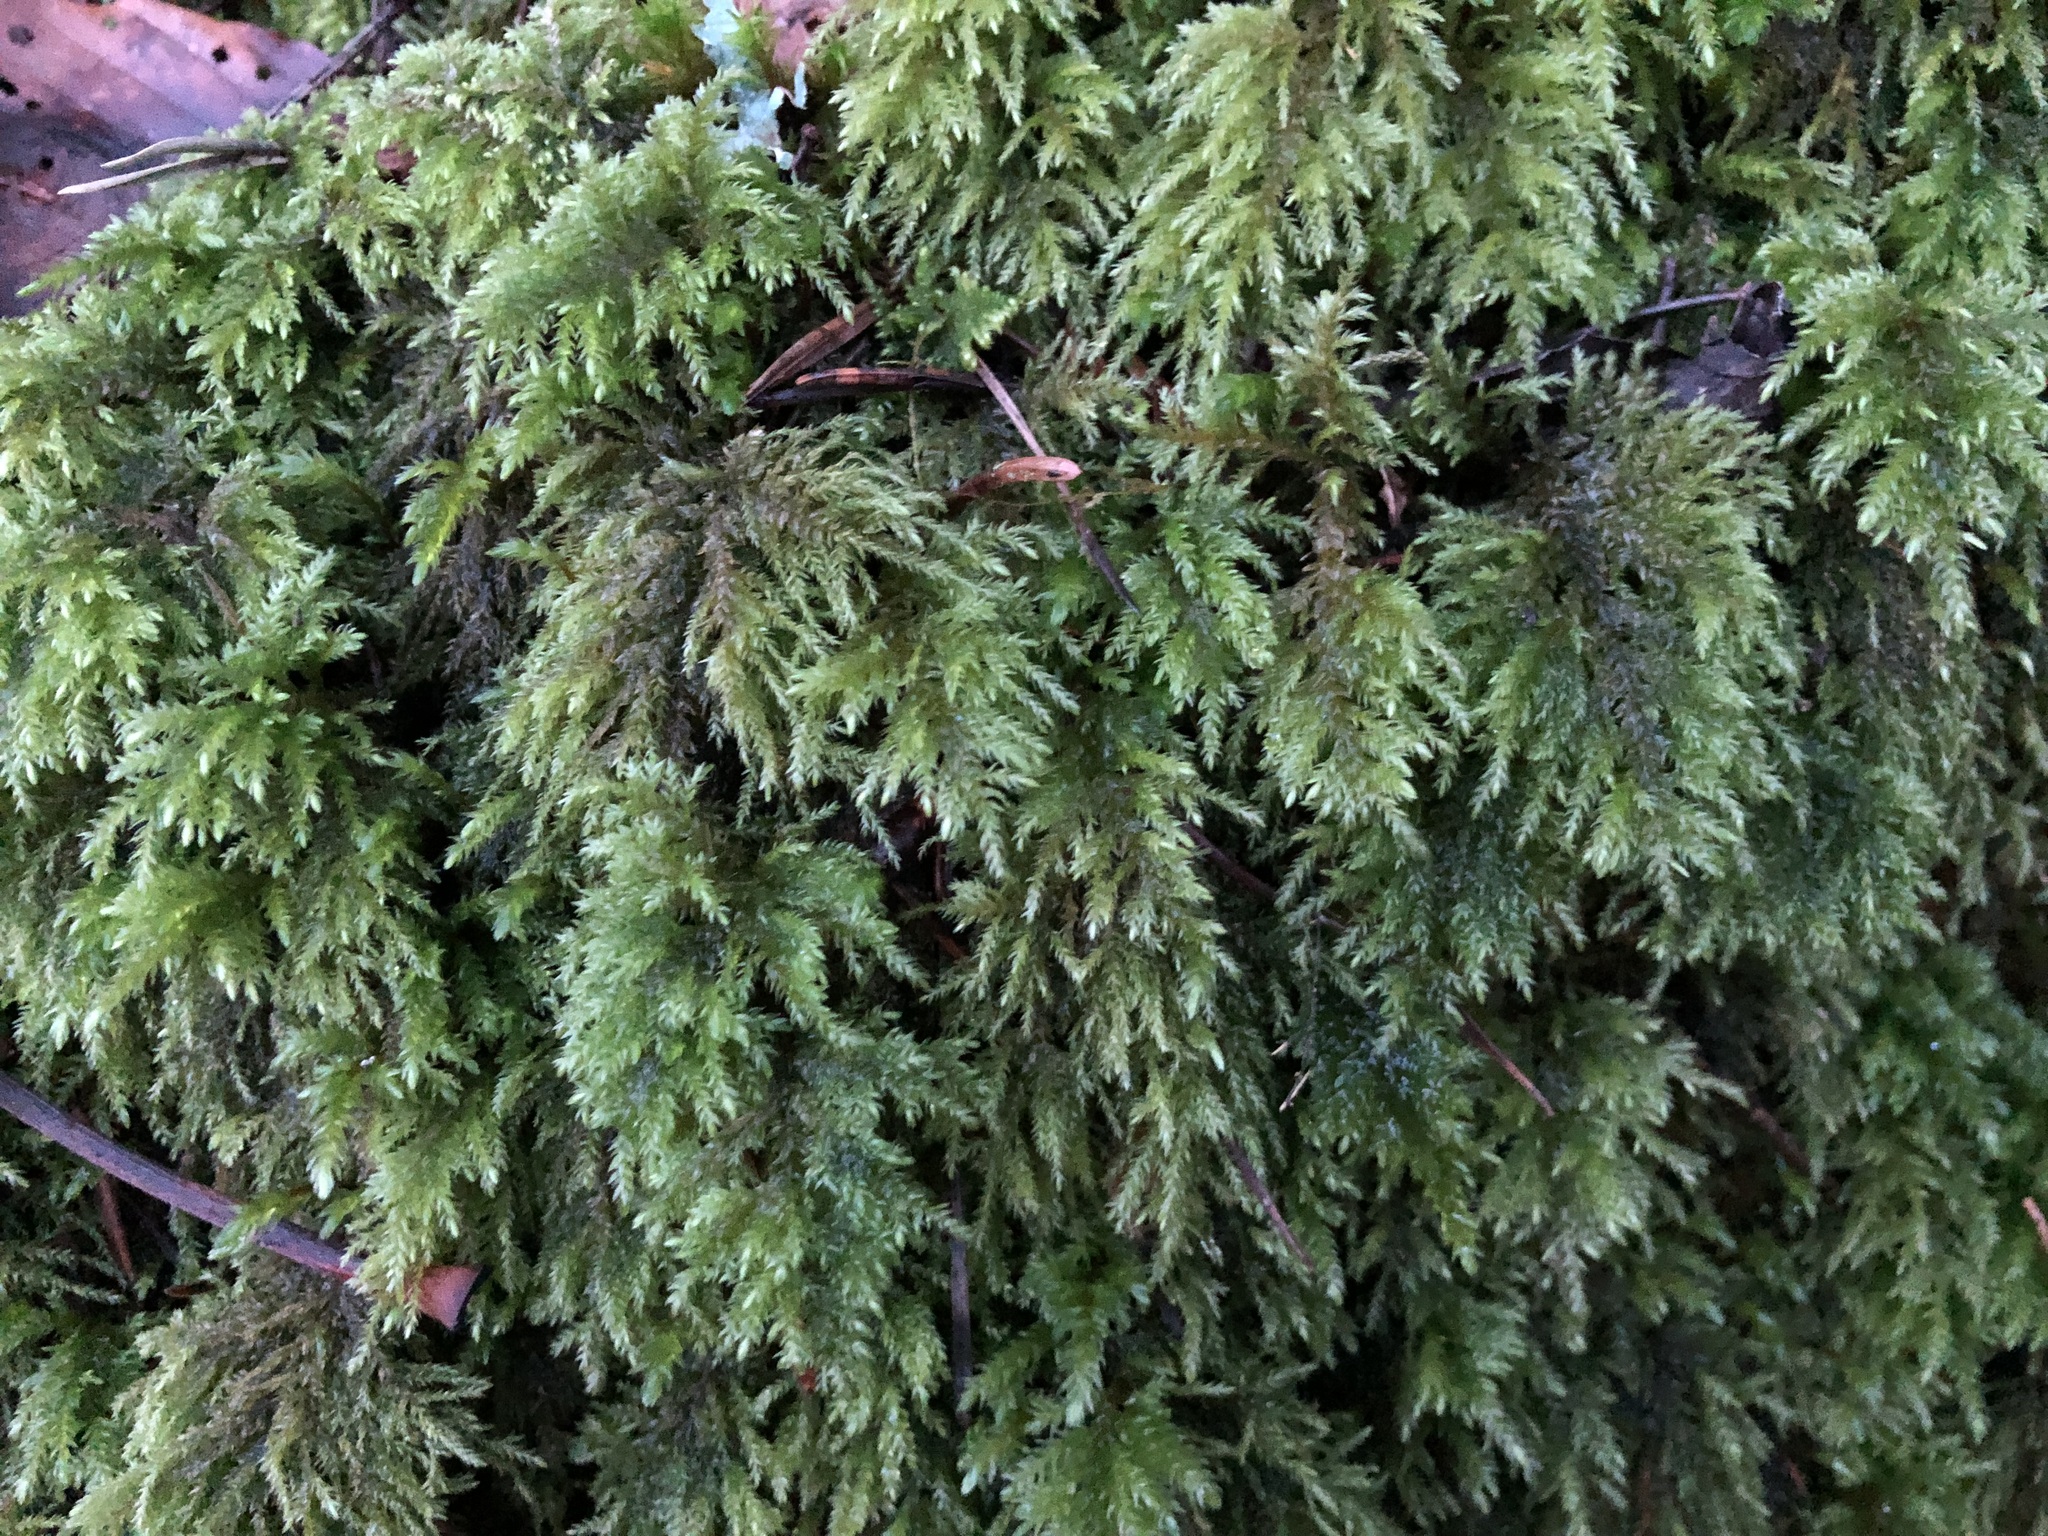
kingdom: Plantae
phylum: Bryophyta
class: Bryopsida
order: Hypnales
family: Neckeraceae
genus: Thamnobryum
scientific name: Thamnobryum alopecurum
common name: Fox-tail feather-moss
